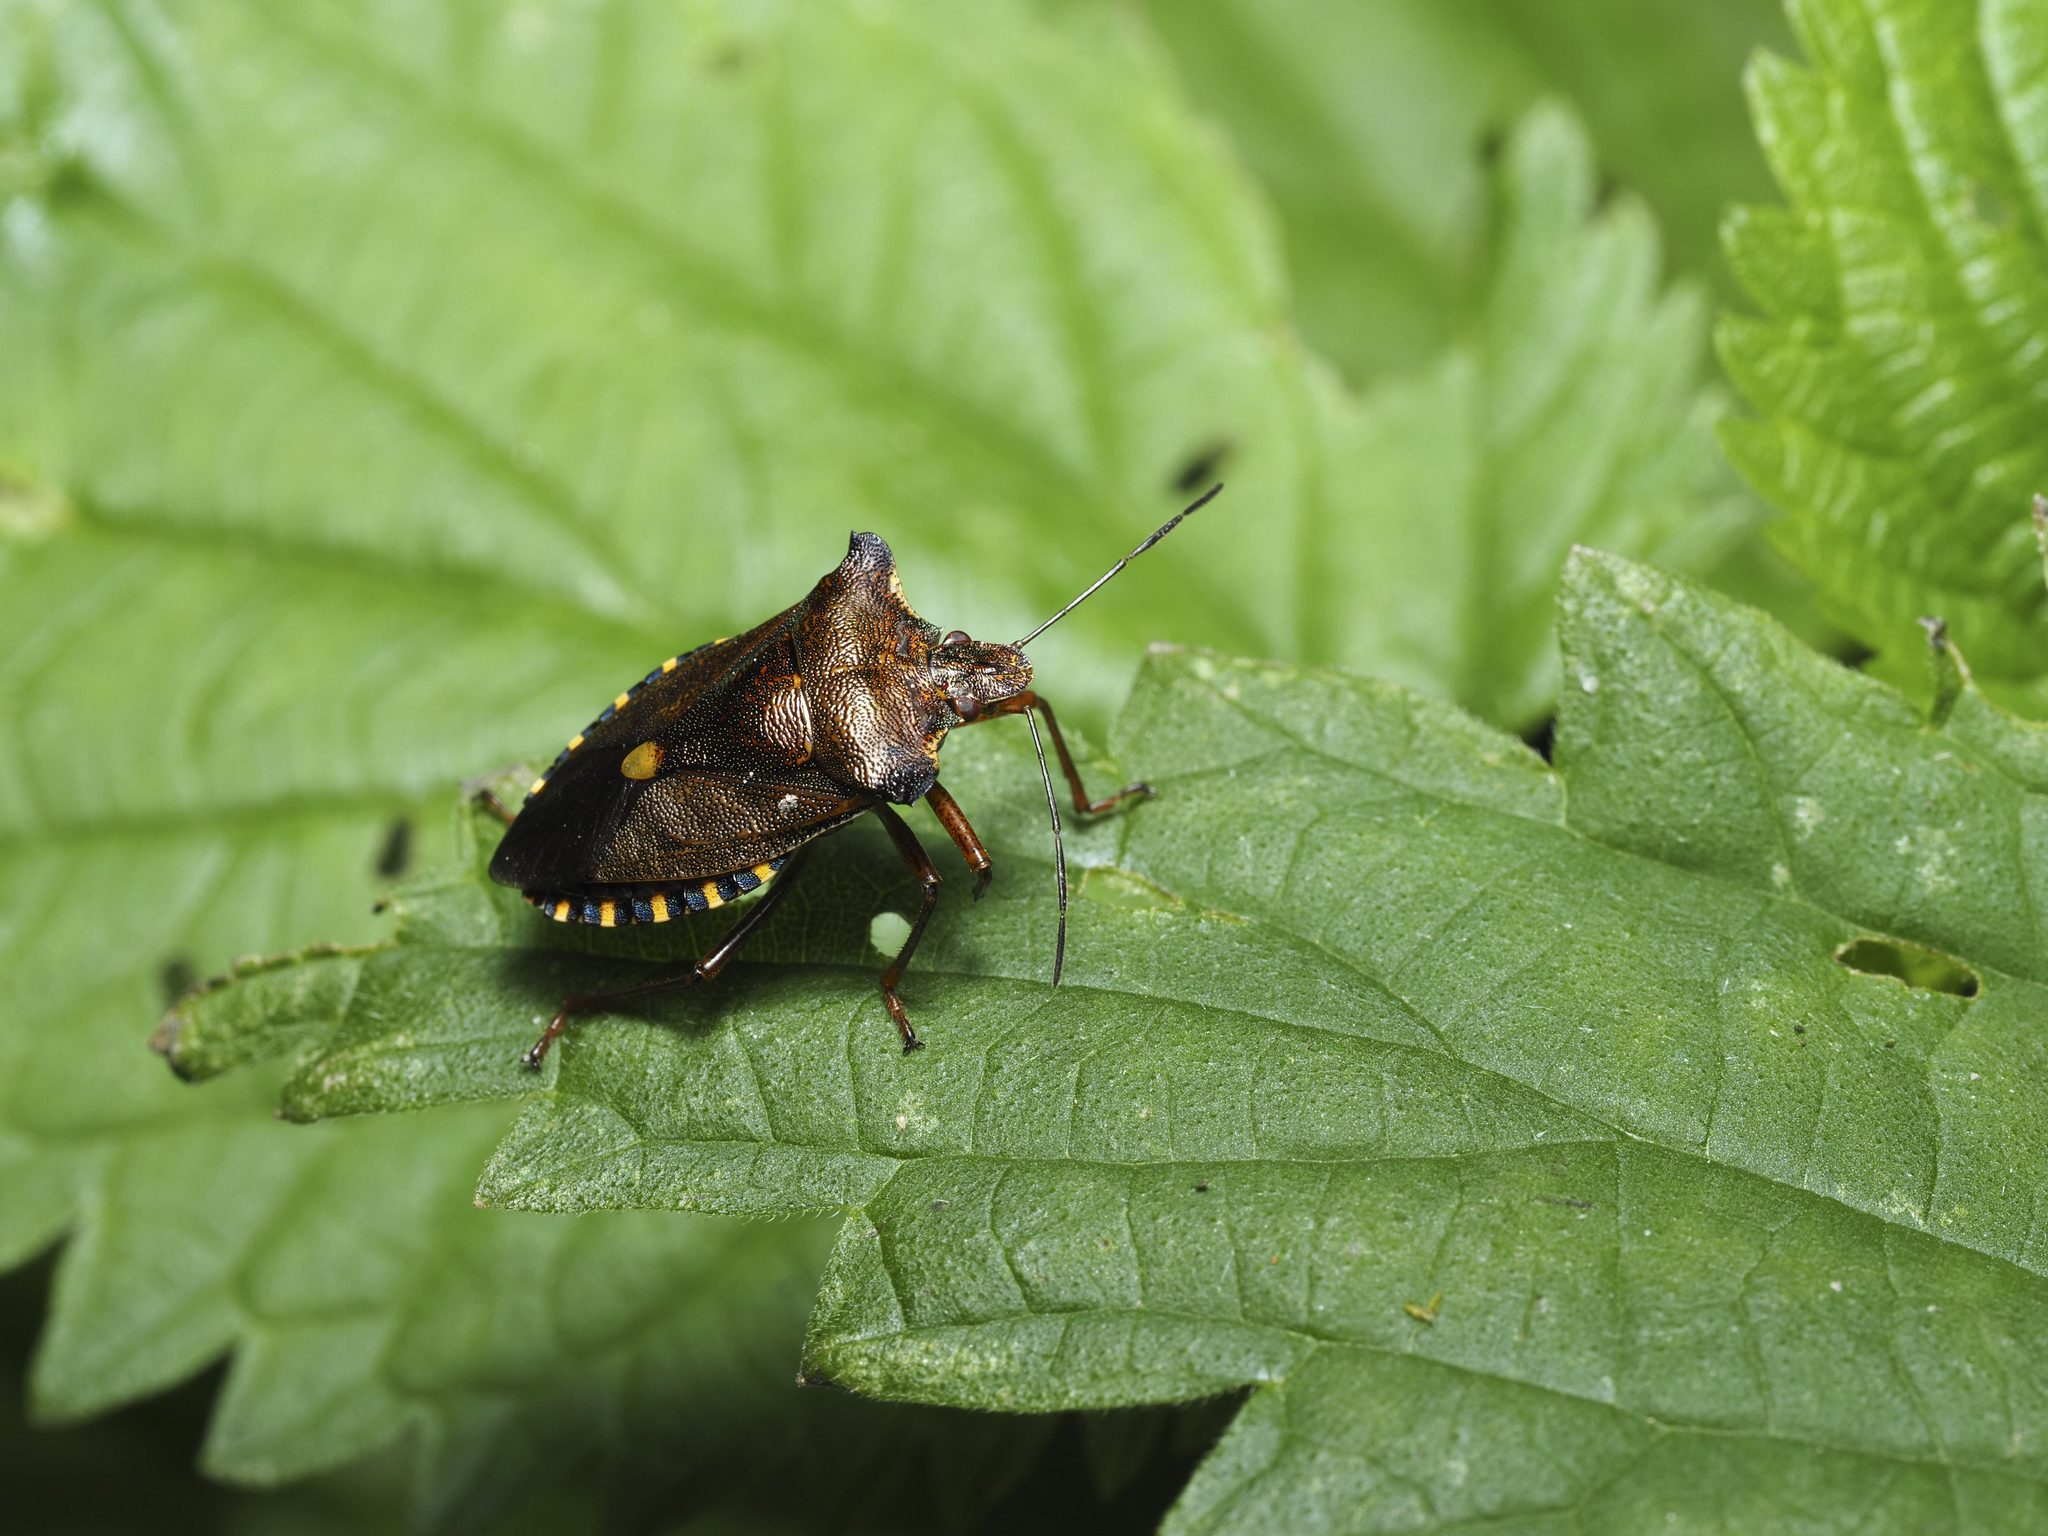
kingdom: Animalia
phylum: Arthropoda
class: Insecta
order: Hemiptera
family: Pentatomidae
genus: Pentatoma
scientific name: Pentatoma rufipes
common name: Forest bug
